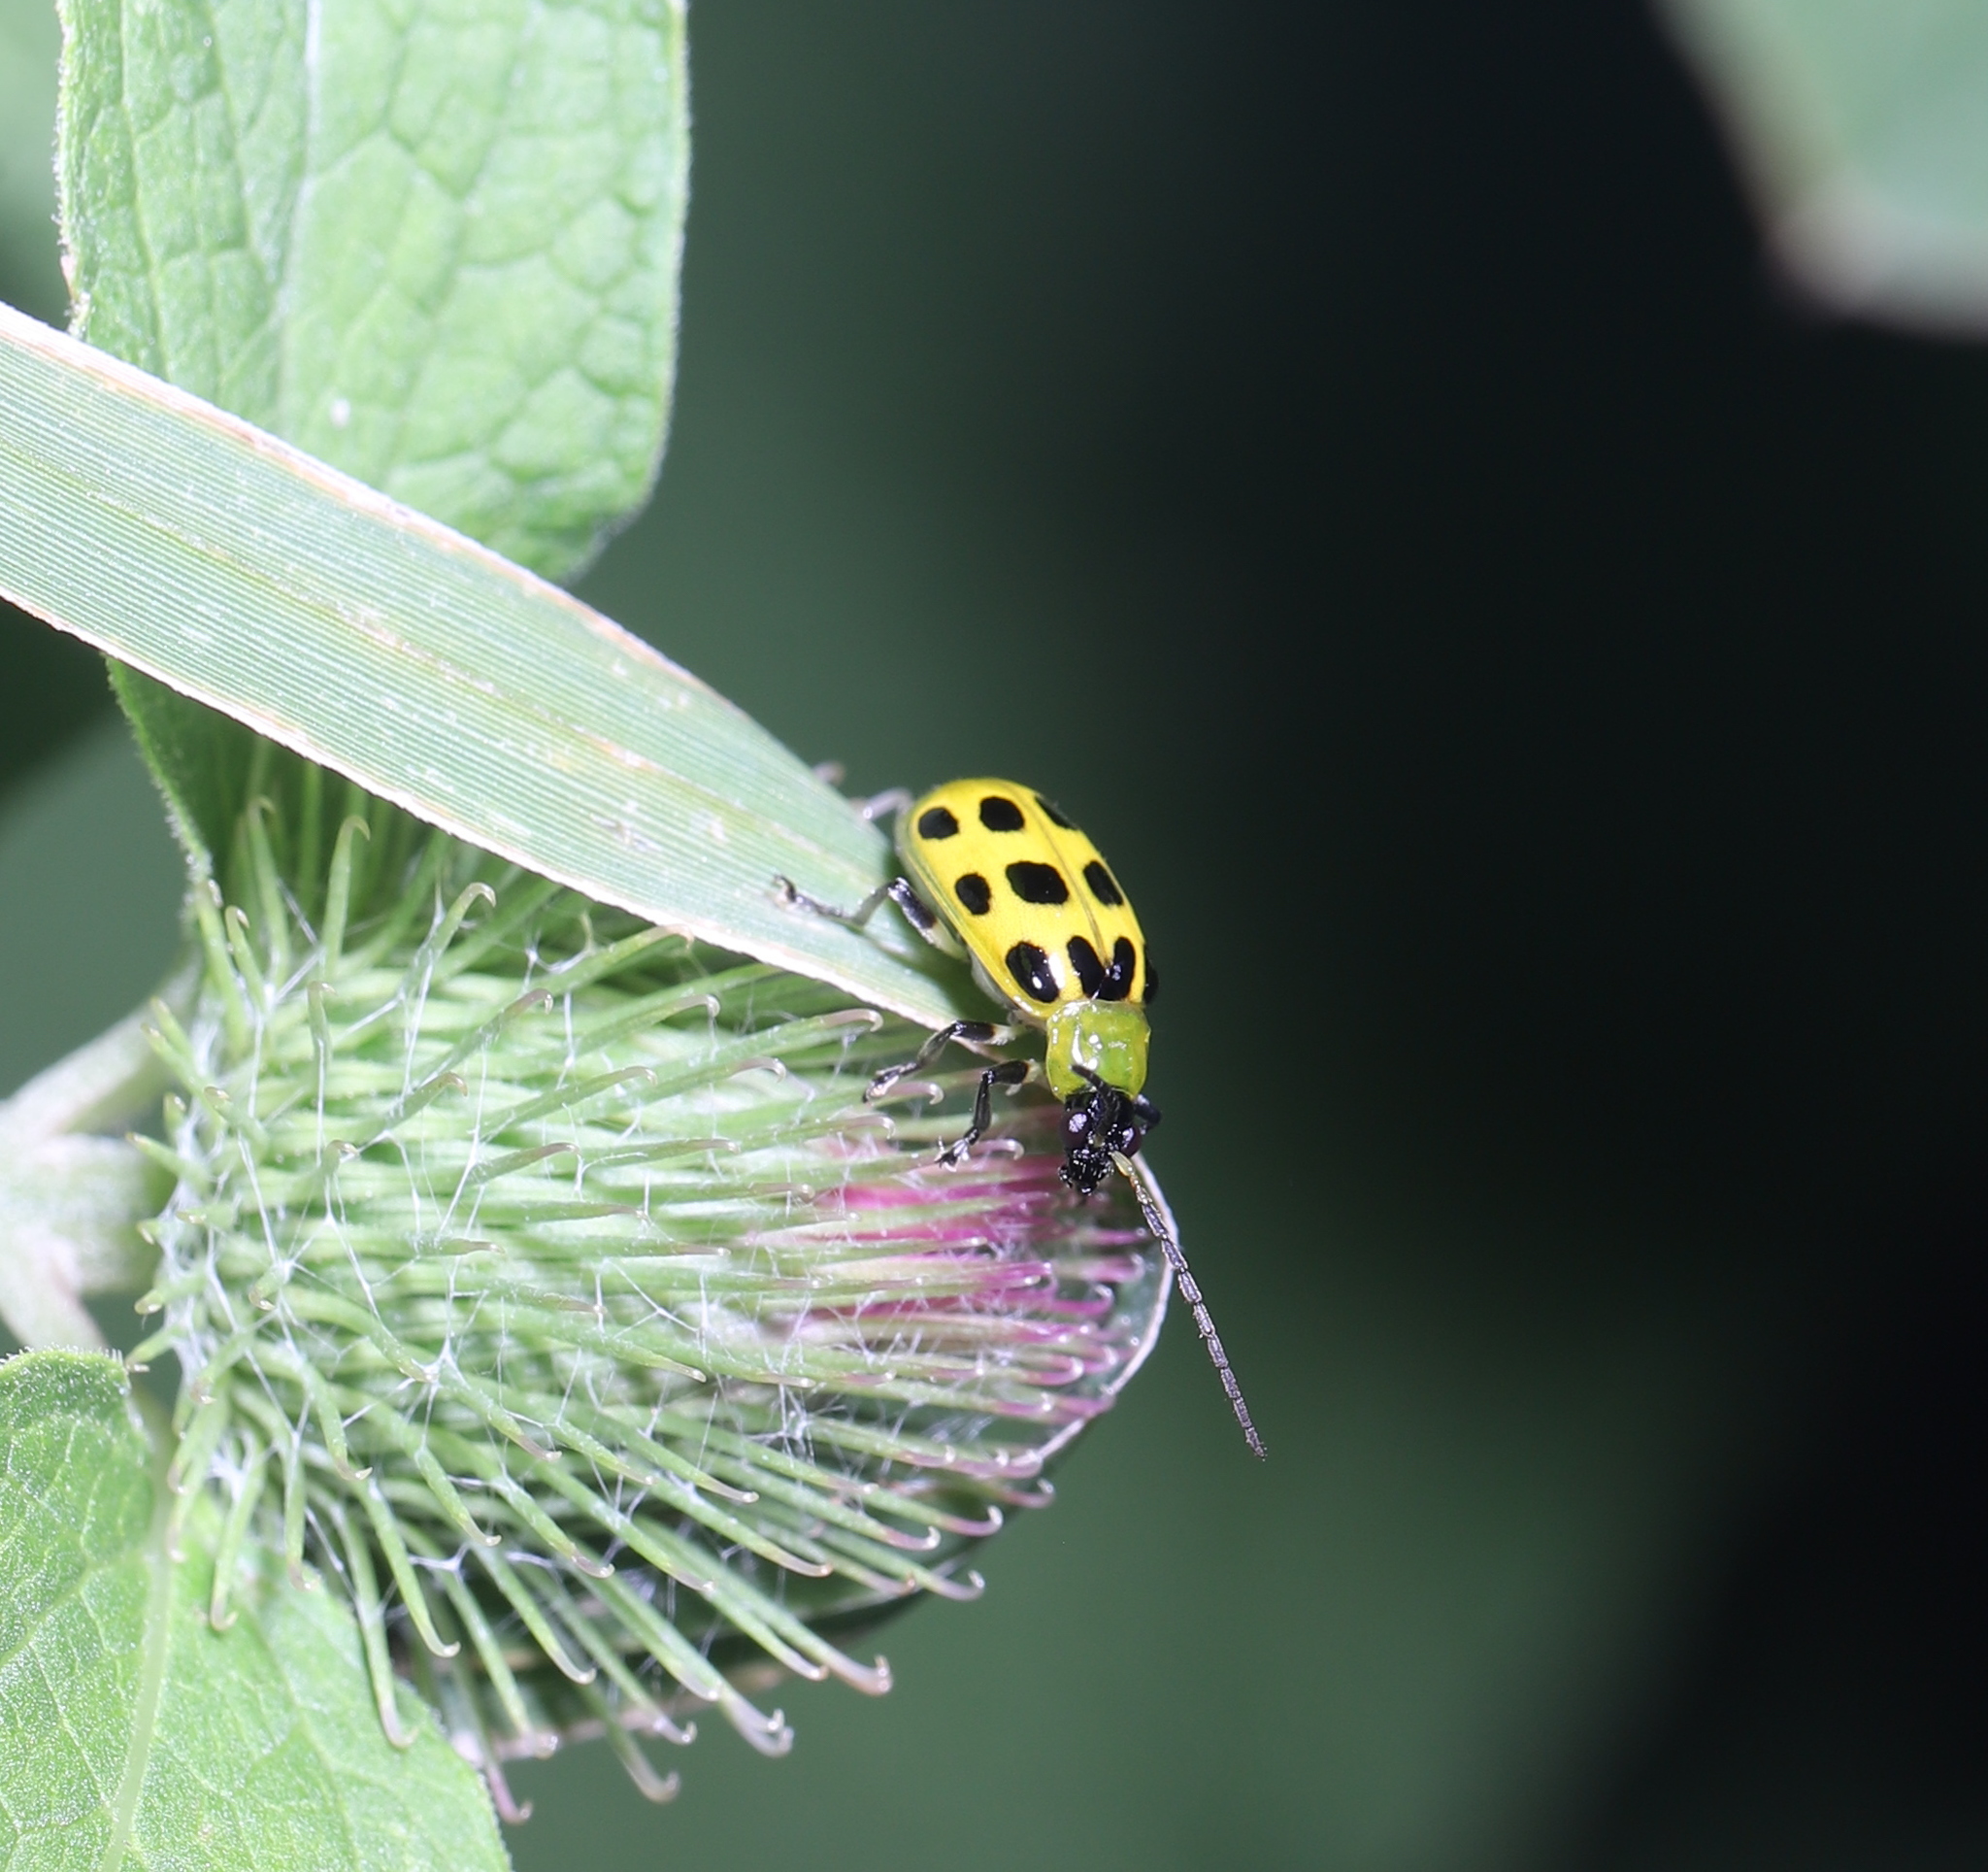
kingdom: Animalia
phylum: Arthropoda
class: Insecta
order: Coleoptera
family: Chrysomelidae
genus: Diabrotica
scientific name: Diabrotica undecimpunctata
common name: Spotted cucumber beetle
